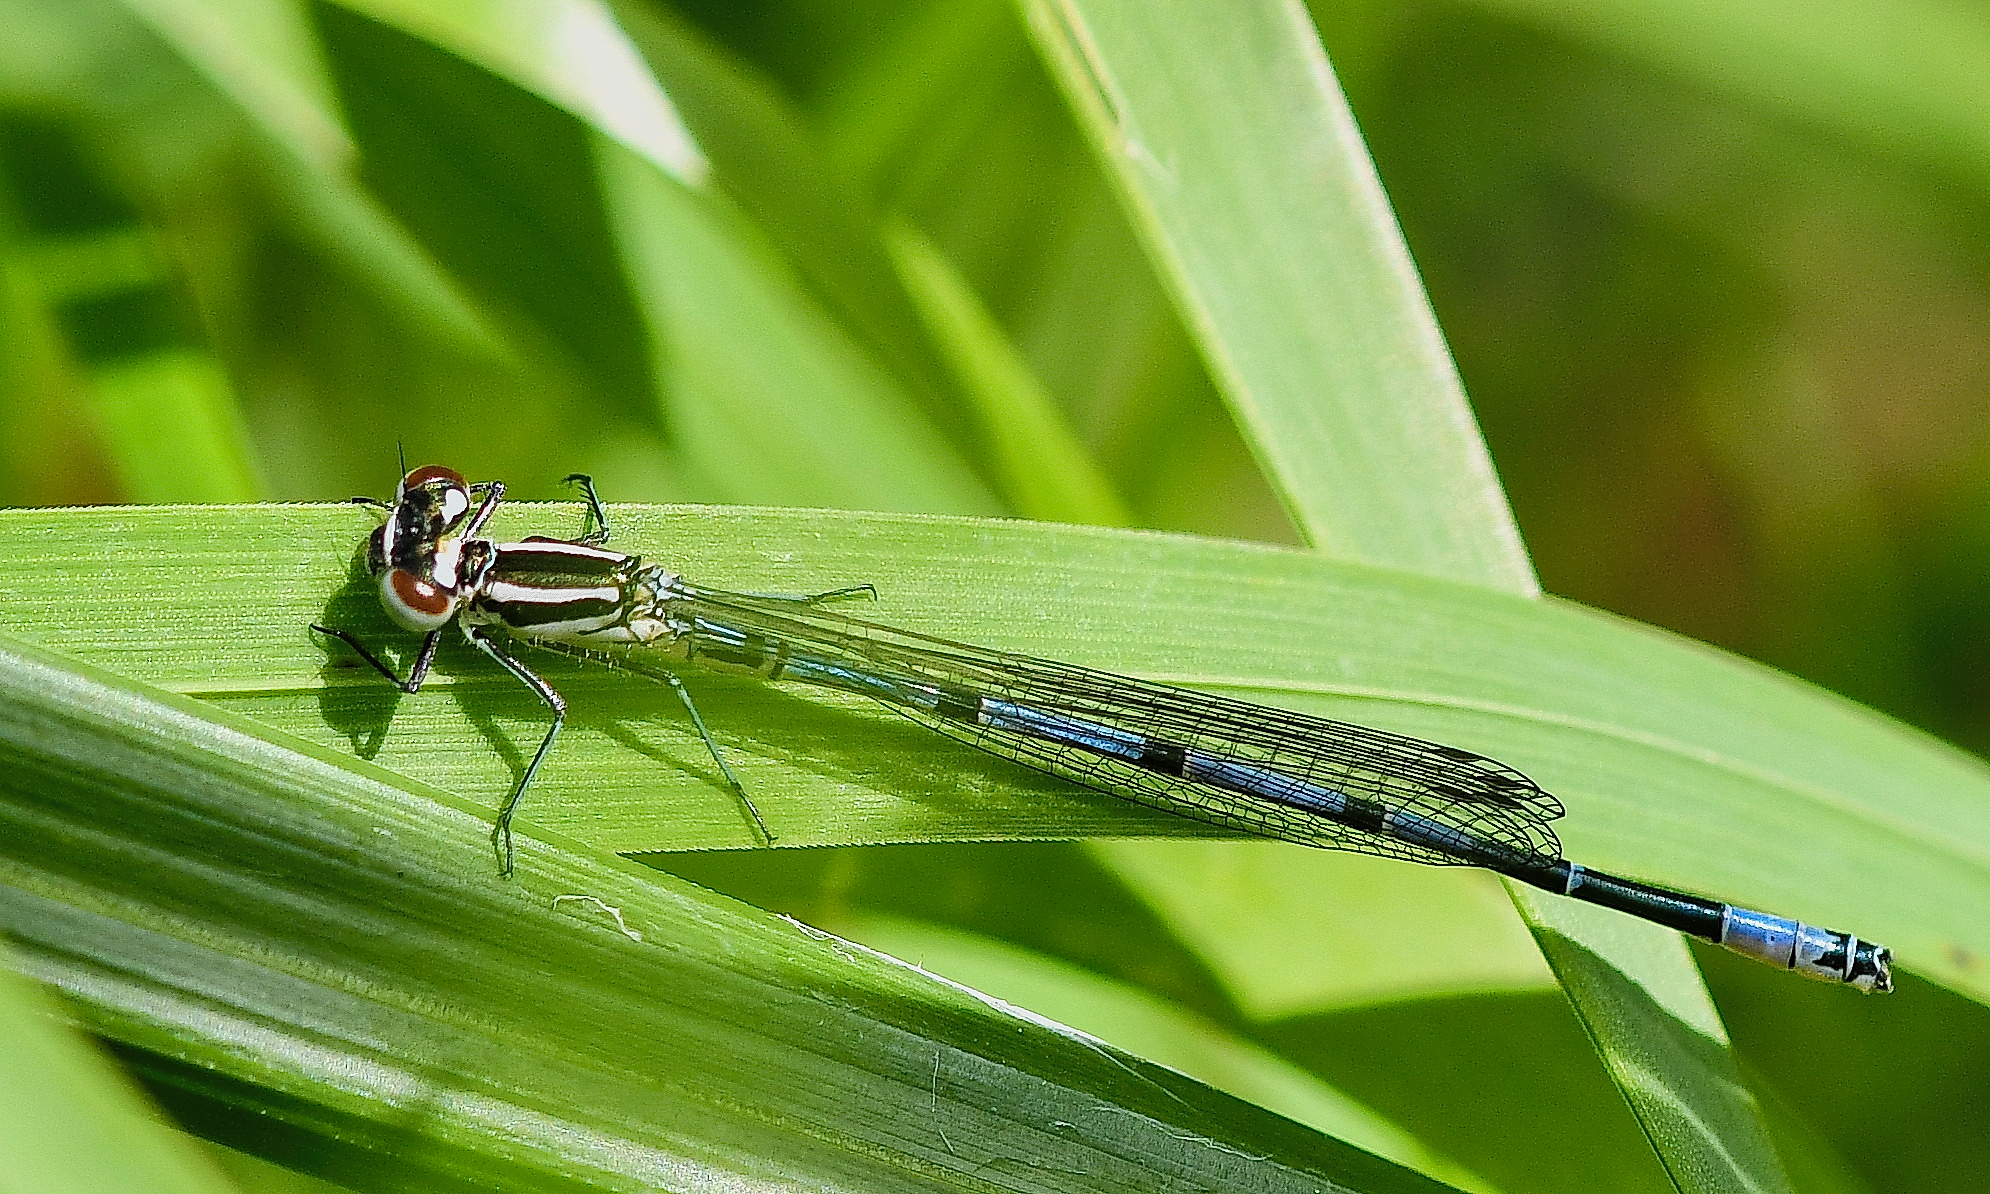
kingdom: Animalia
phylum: Arthropoda
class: Insecta
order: Odonata
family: Coenagrionidae
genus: Coenagrion
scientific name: Coenagrion puella
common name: Azure damselfly
